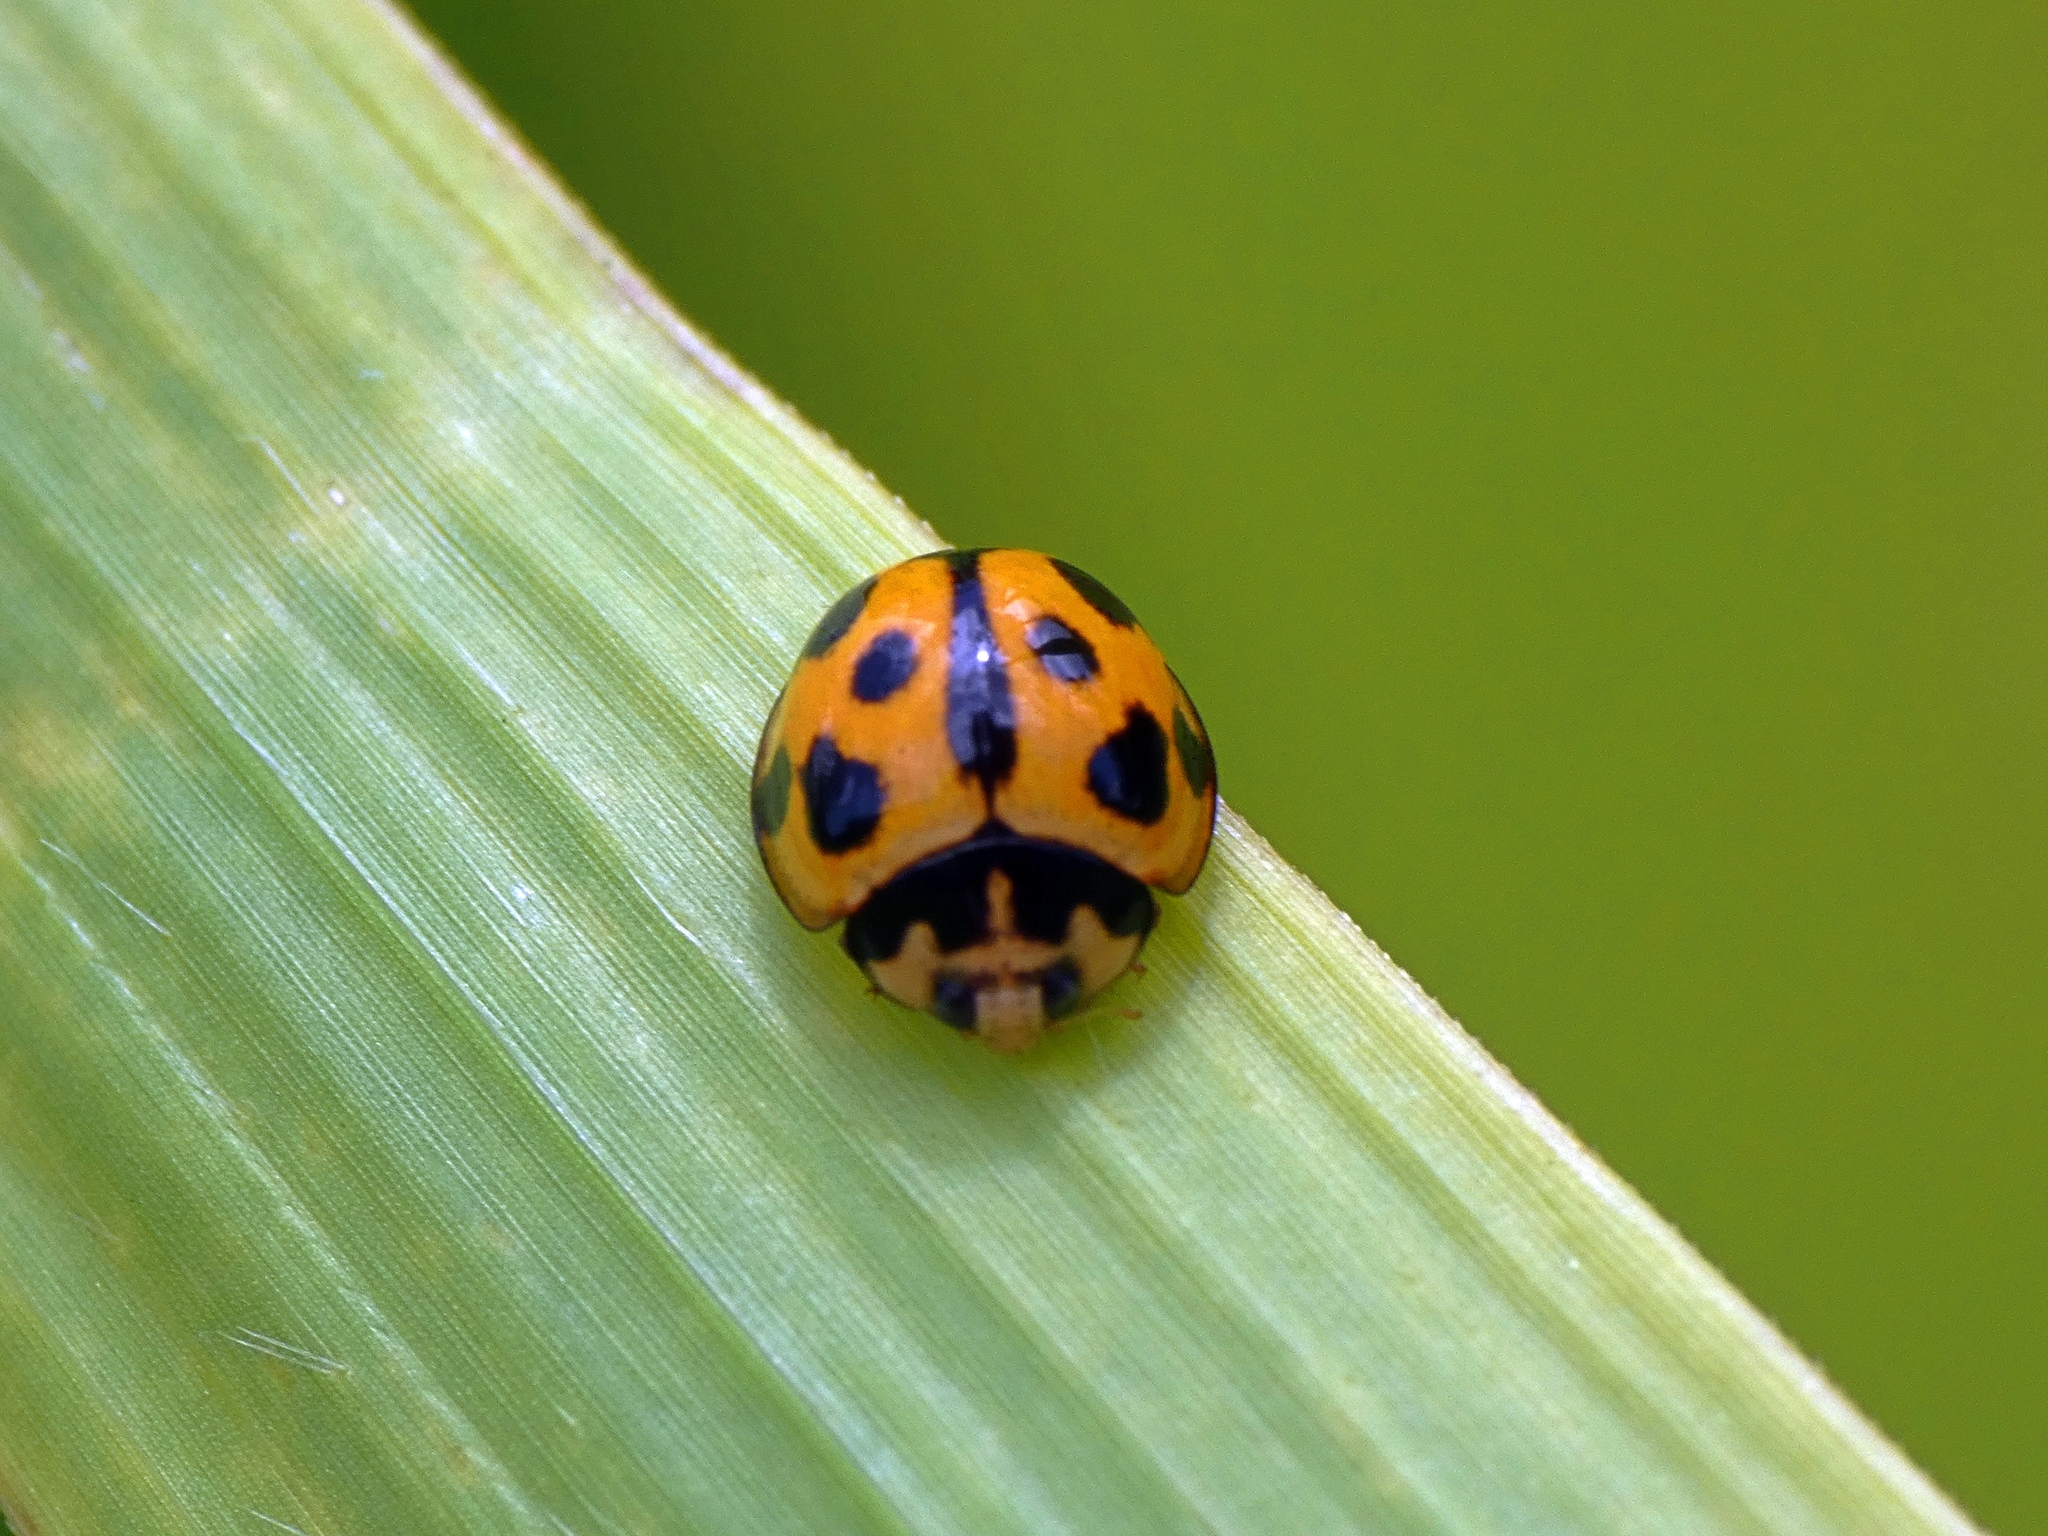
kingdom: Animalia
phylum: Arthropoda
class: Insecta
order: Coleoptera
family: Coccinellidae
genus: Coelophora
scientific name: Coelophora inaequalis
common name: Common australian lady beetle
